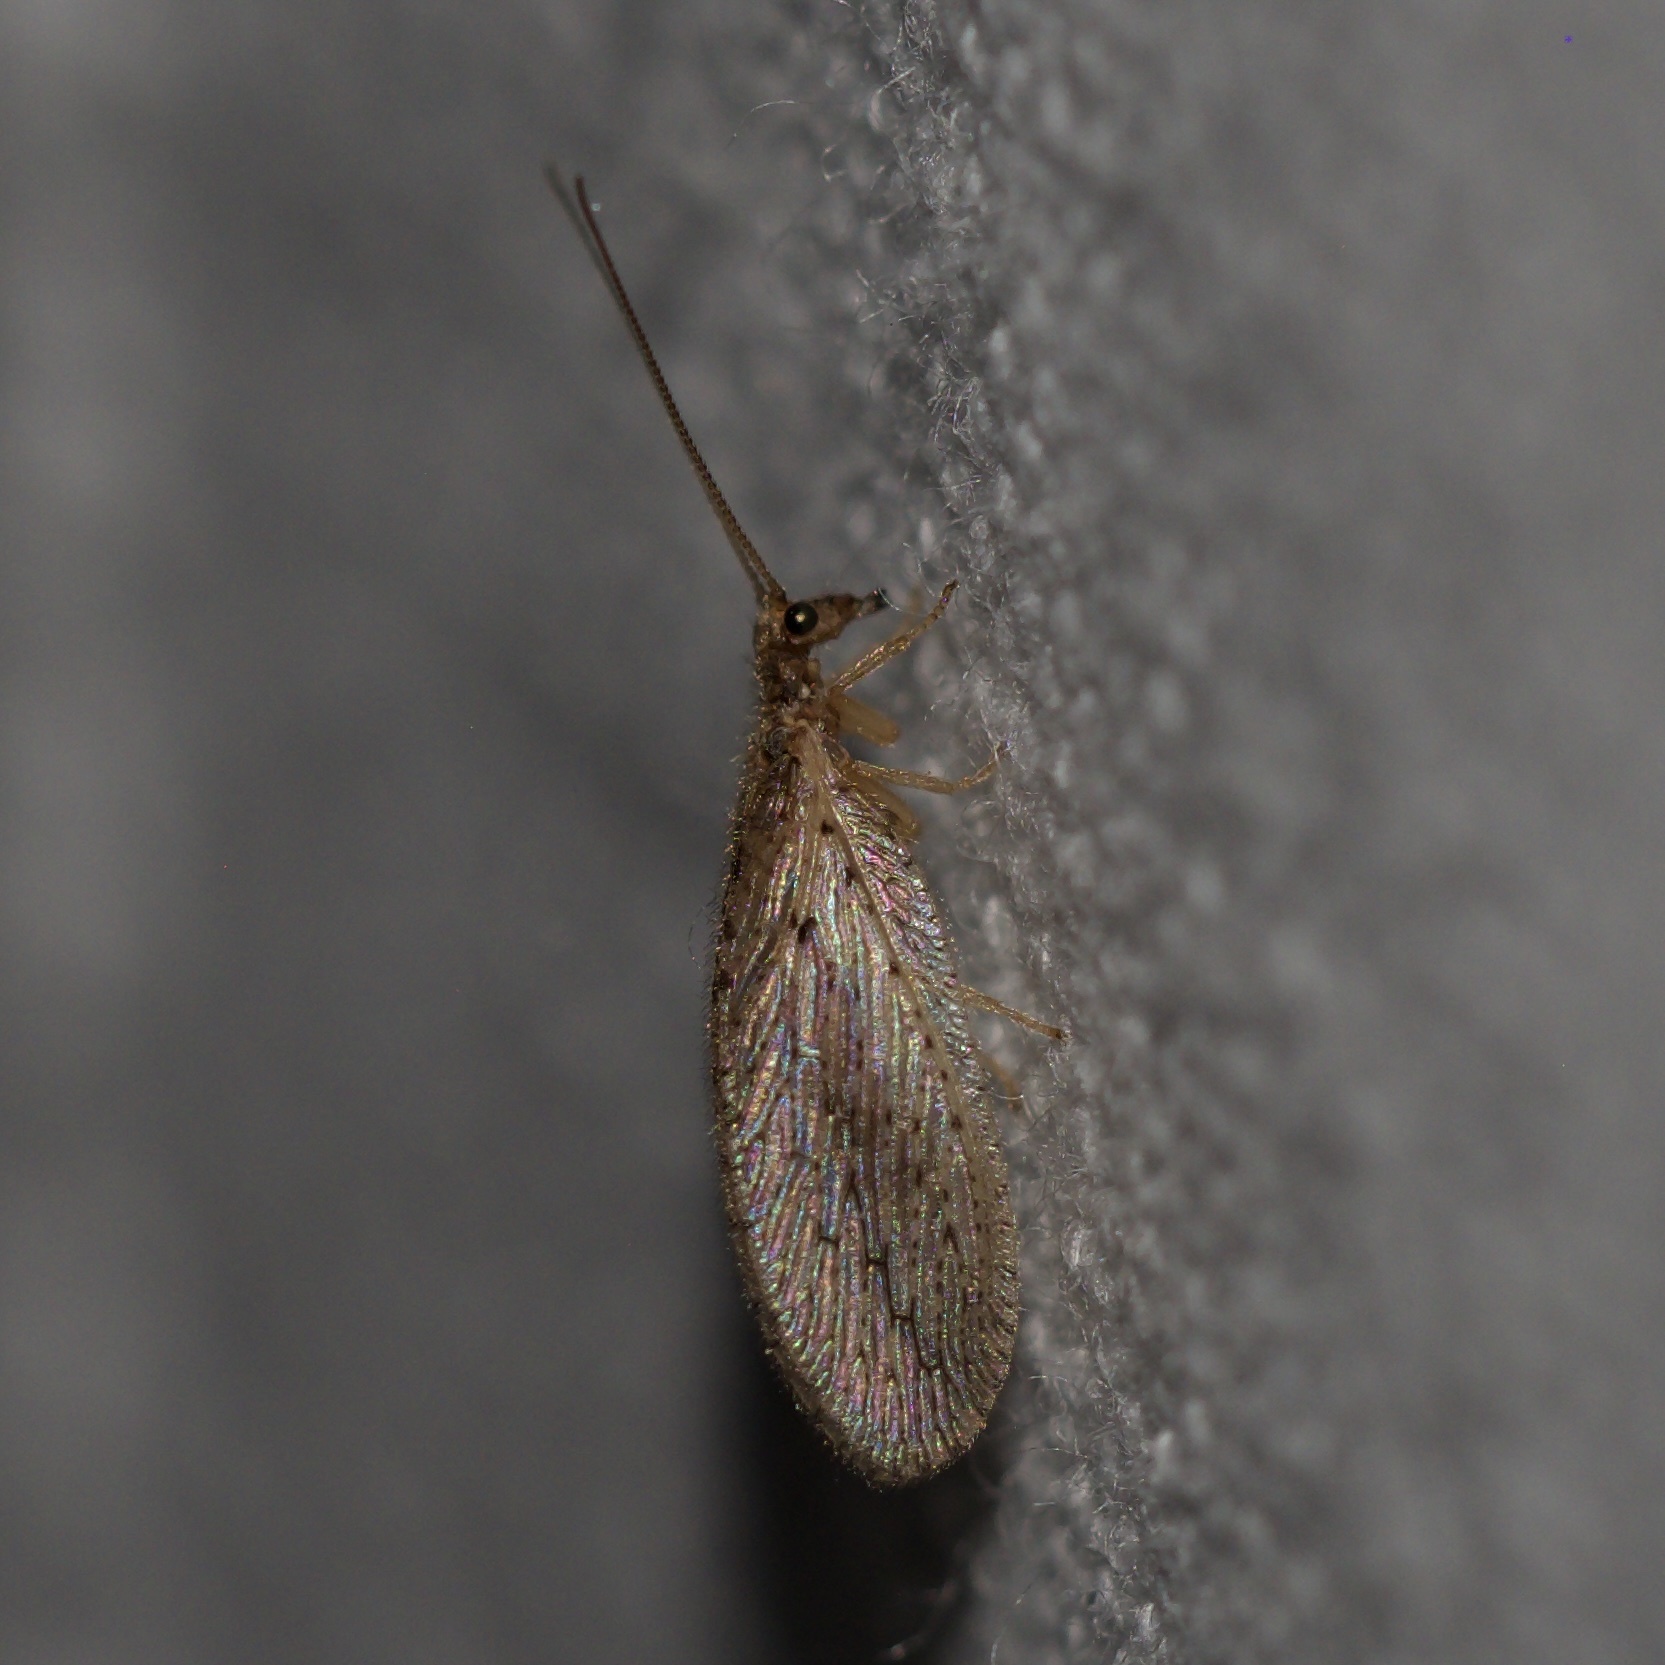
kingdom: Animalia
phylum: Arthropoda
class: Insecta
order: Neuroptera
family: Hemerobiidae
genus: Micromus
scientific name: Micromus subanticus
